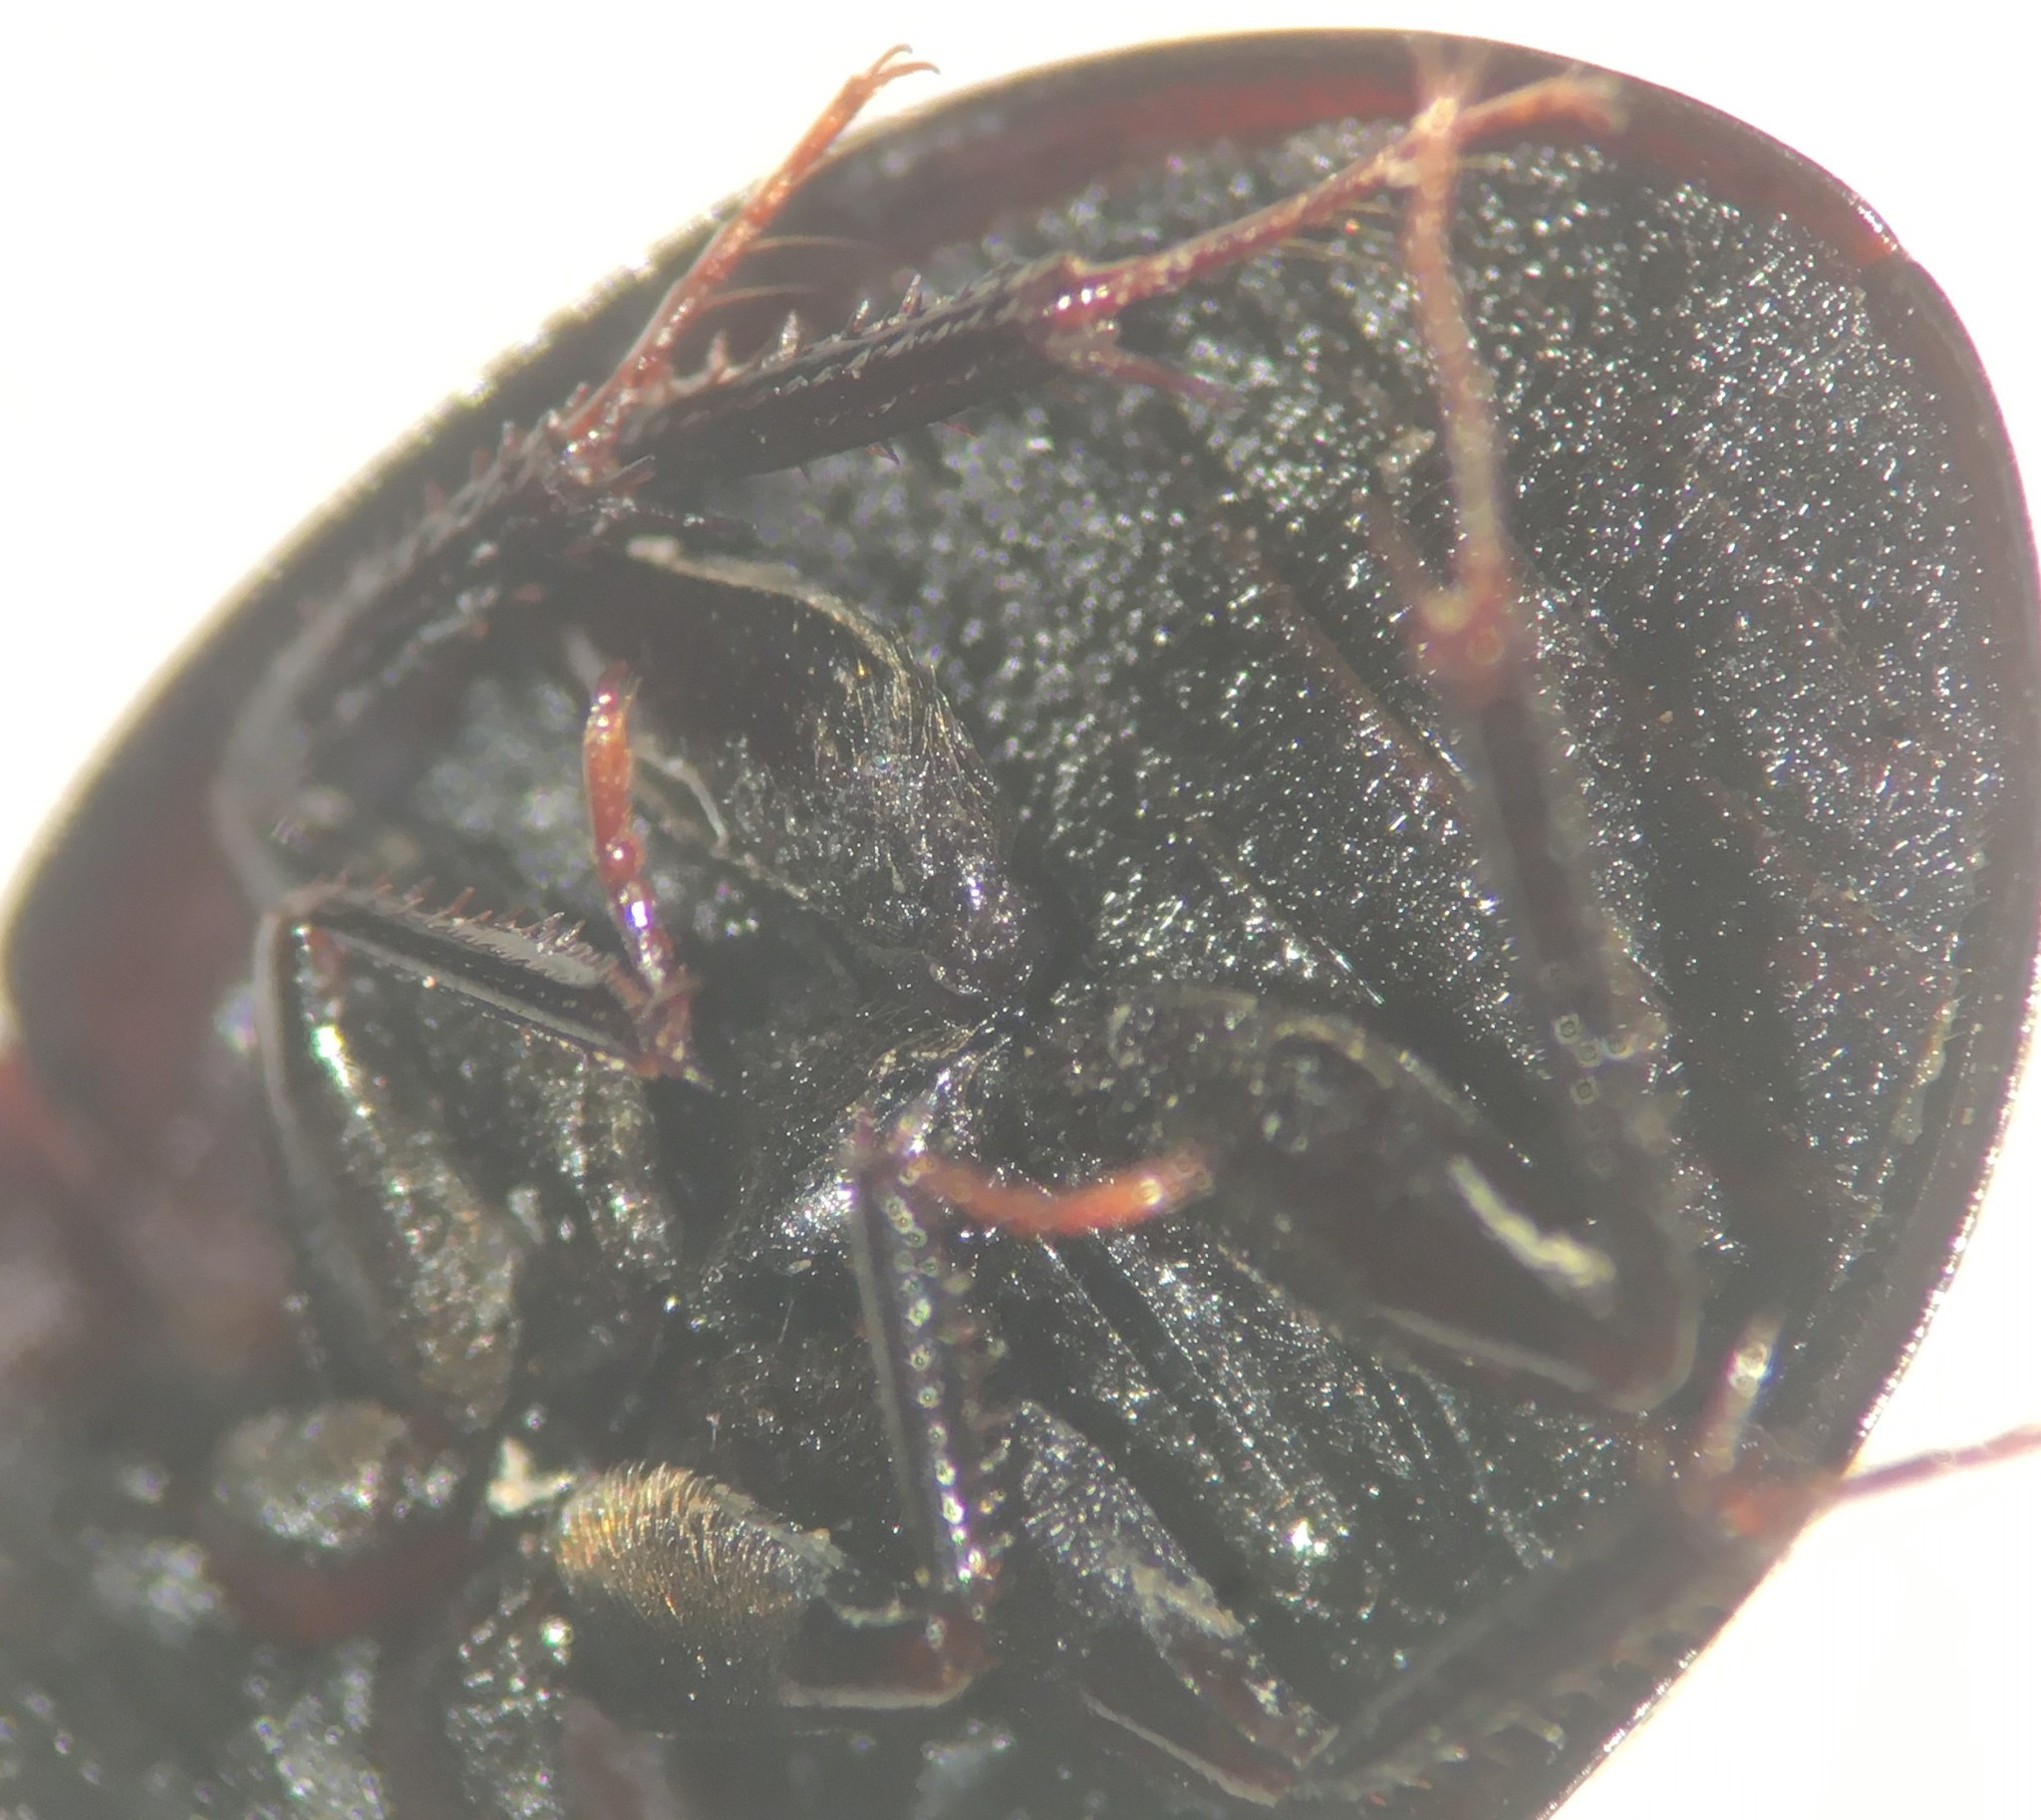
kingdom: Animalia
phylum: Arthropoda
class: Insecta
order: Coleoptera
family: Hydrophilidae
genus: Limnohydrobius
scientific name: Limnohydrobius melaenus
